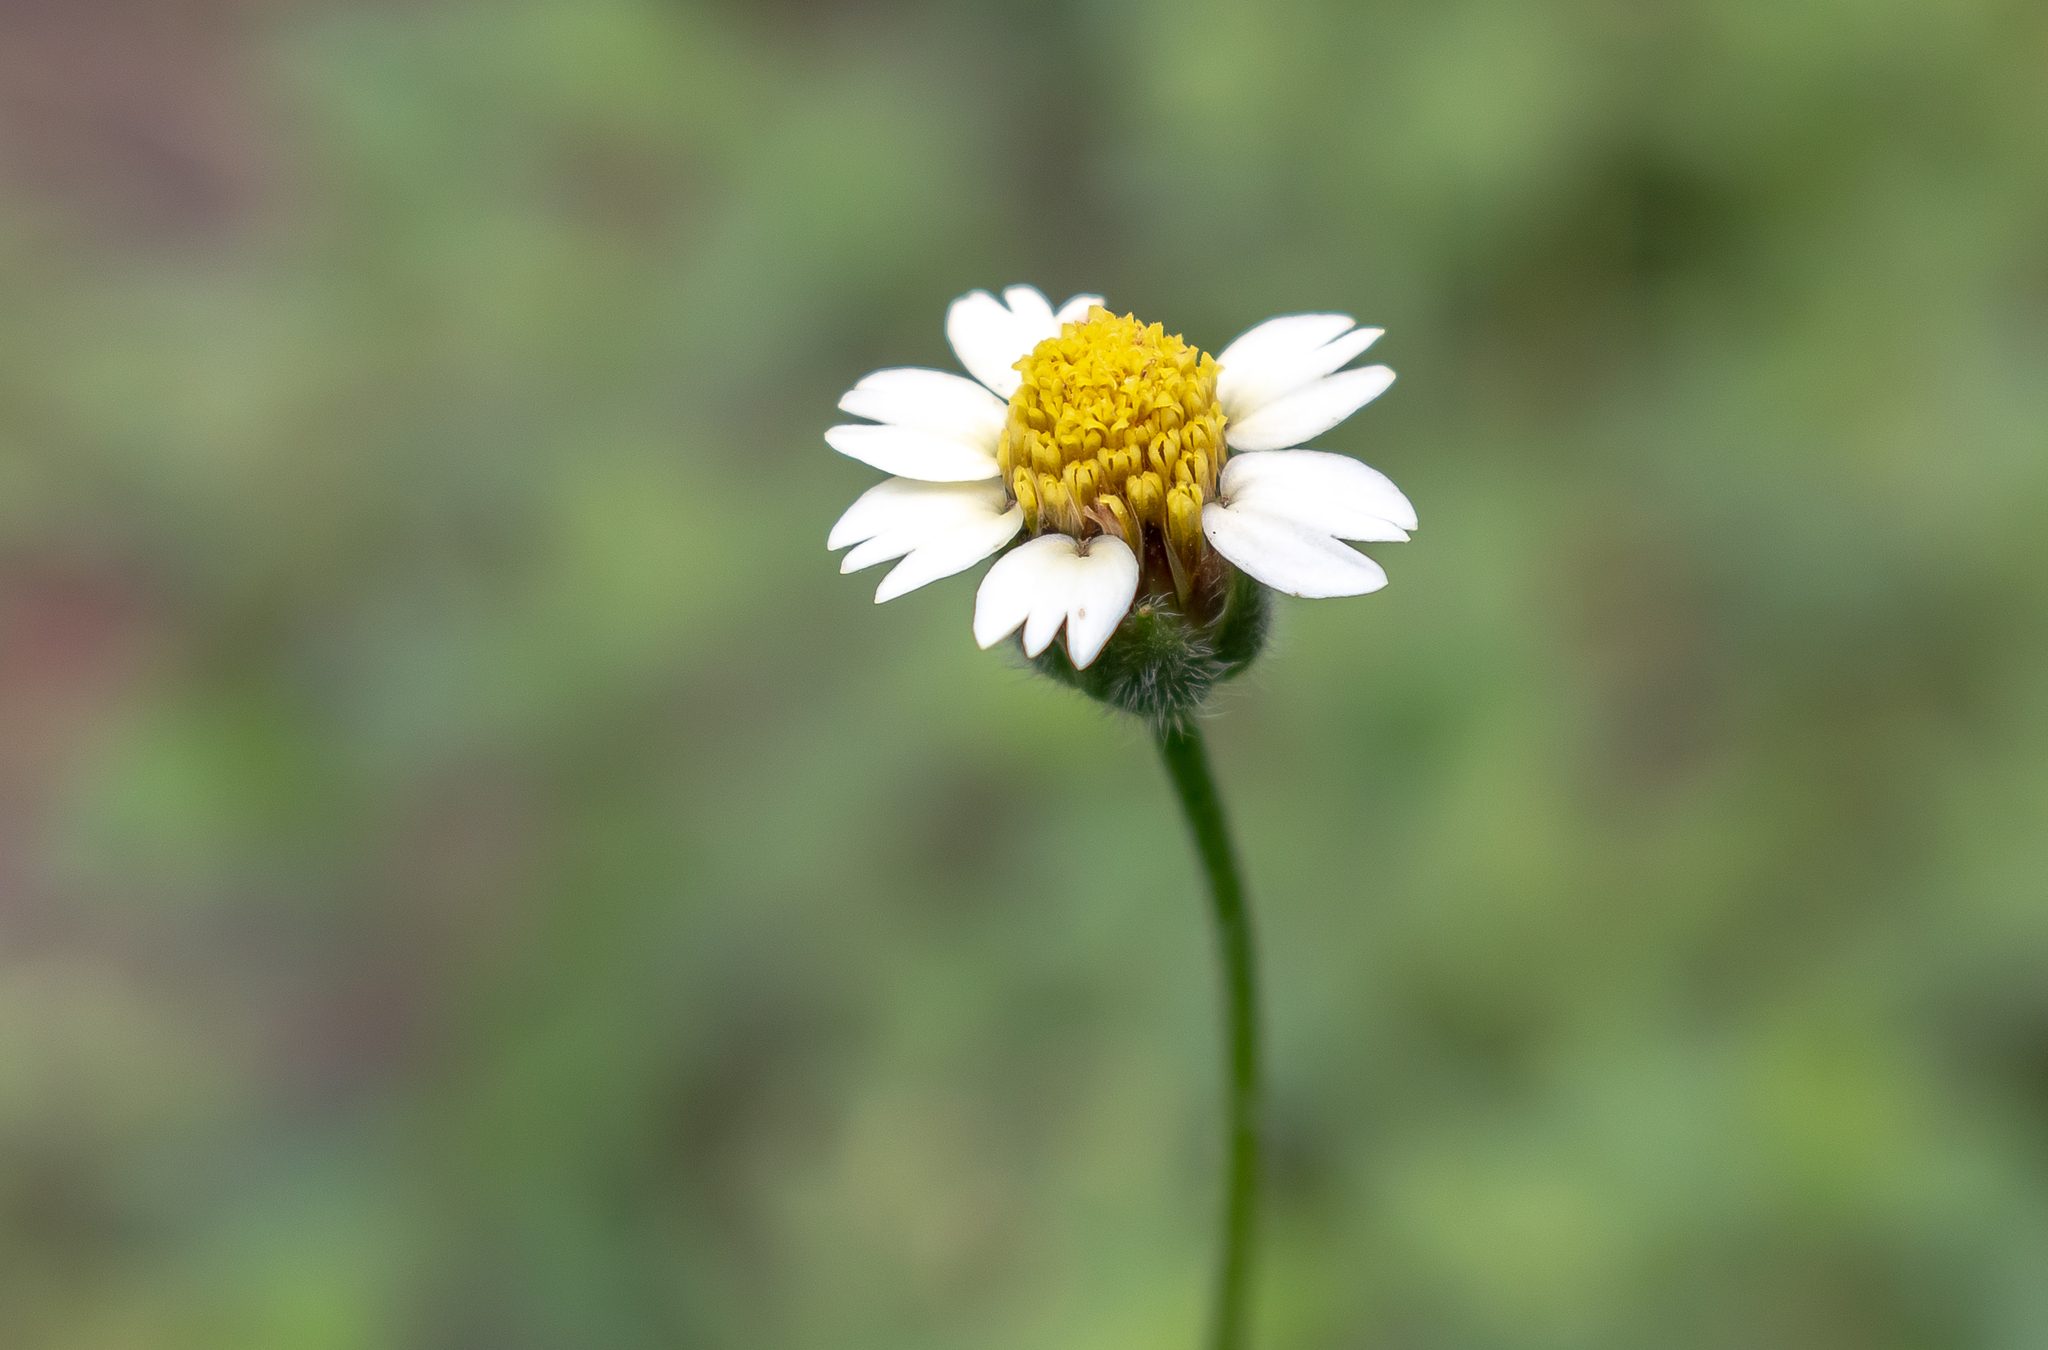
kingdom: Plantae
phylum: Tracheophyta
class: Magnoliopsida
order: Asterales
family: Asteraceae
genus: Tridax
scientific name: Tridax procumbens
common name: Coatbuttons
